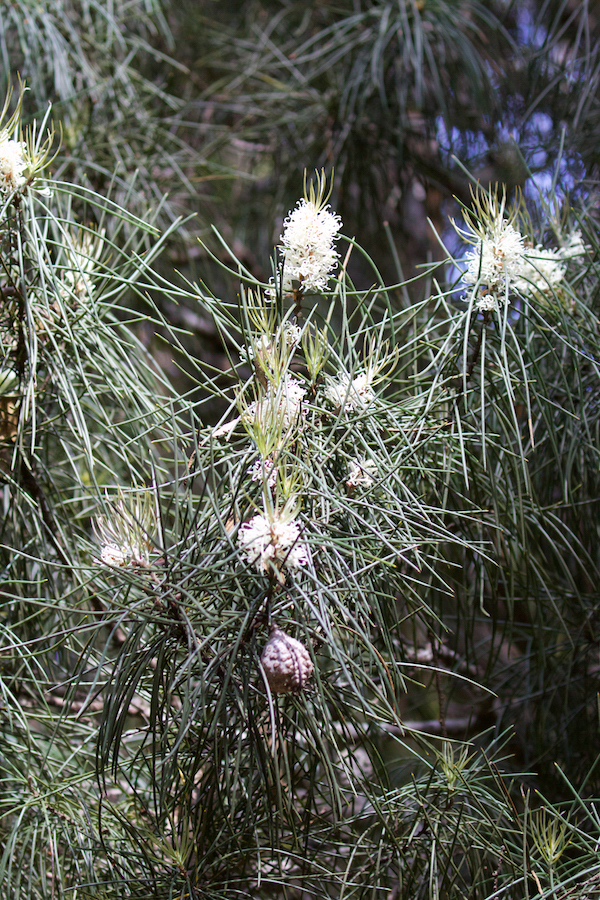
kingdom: Plantae
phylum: Tracheophyta
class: Magnoliopsida
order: Proteales
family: Proteaceae
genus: Hakea
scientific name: Hakea lissosperma
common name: Mountain needlewood
